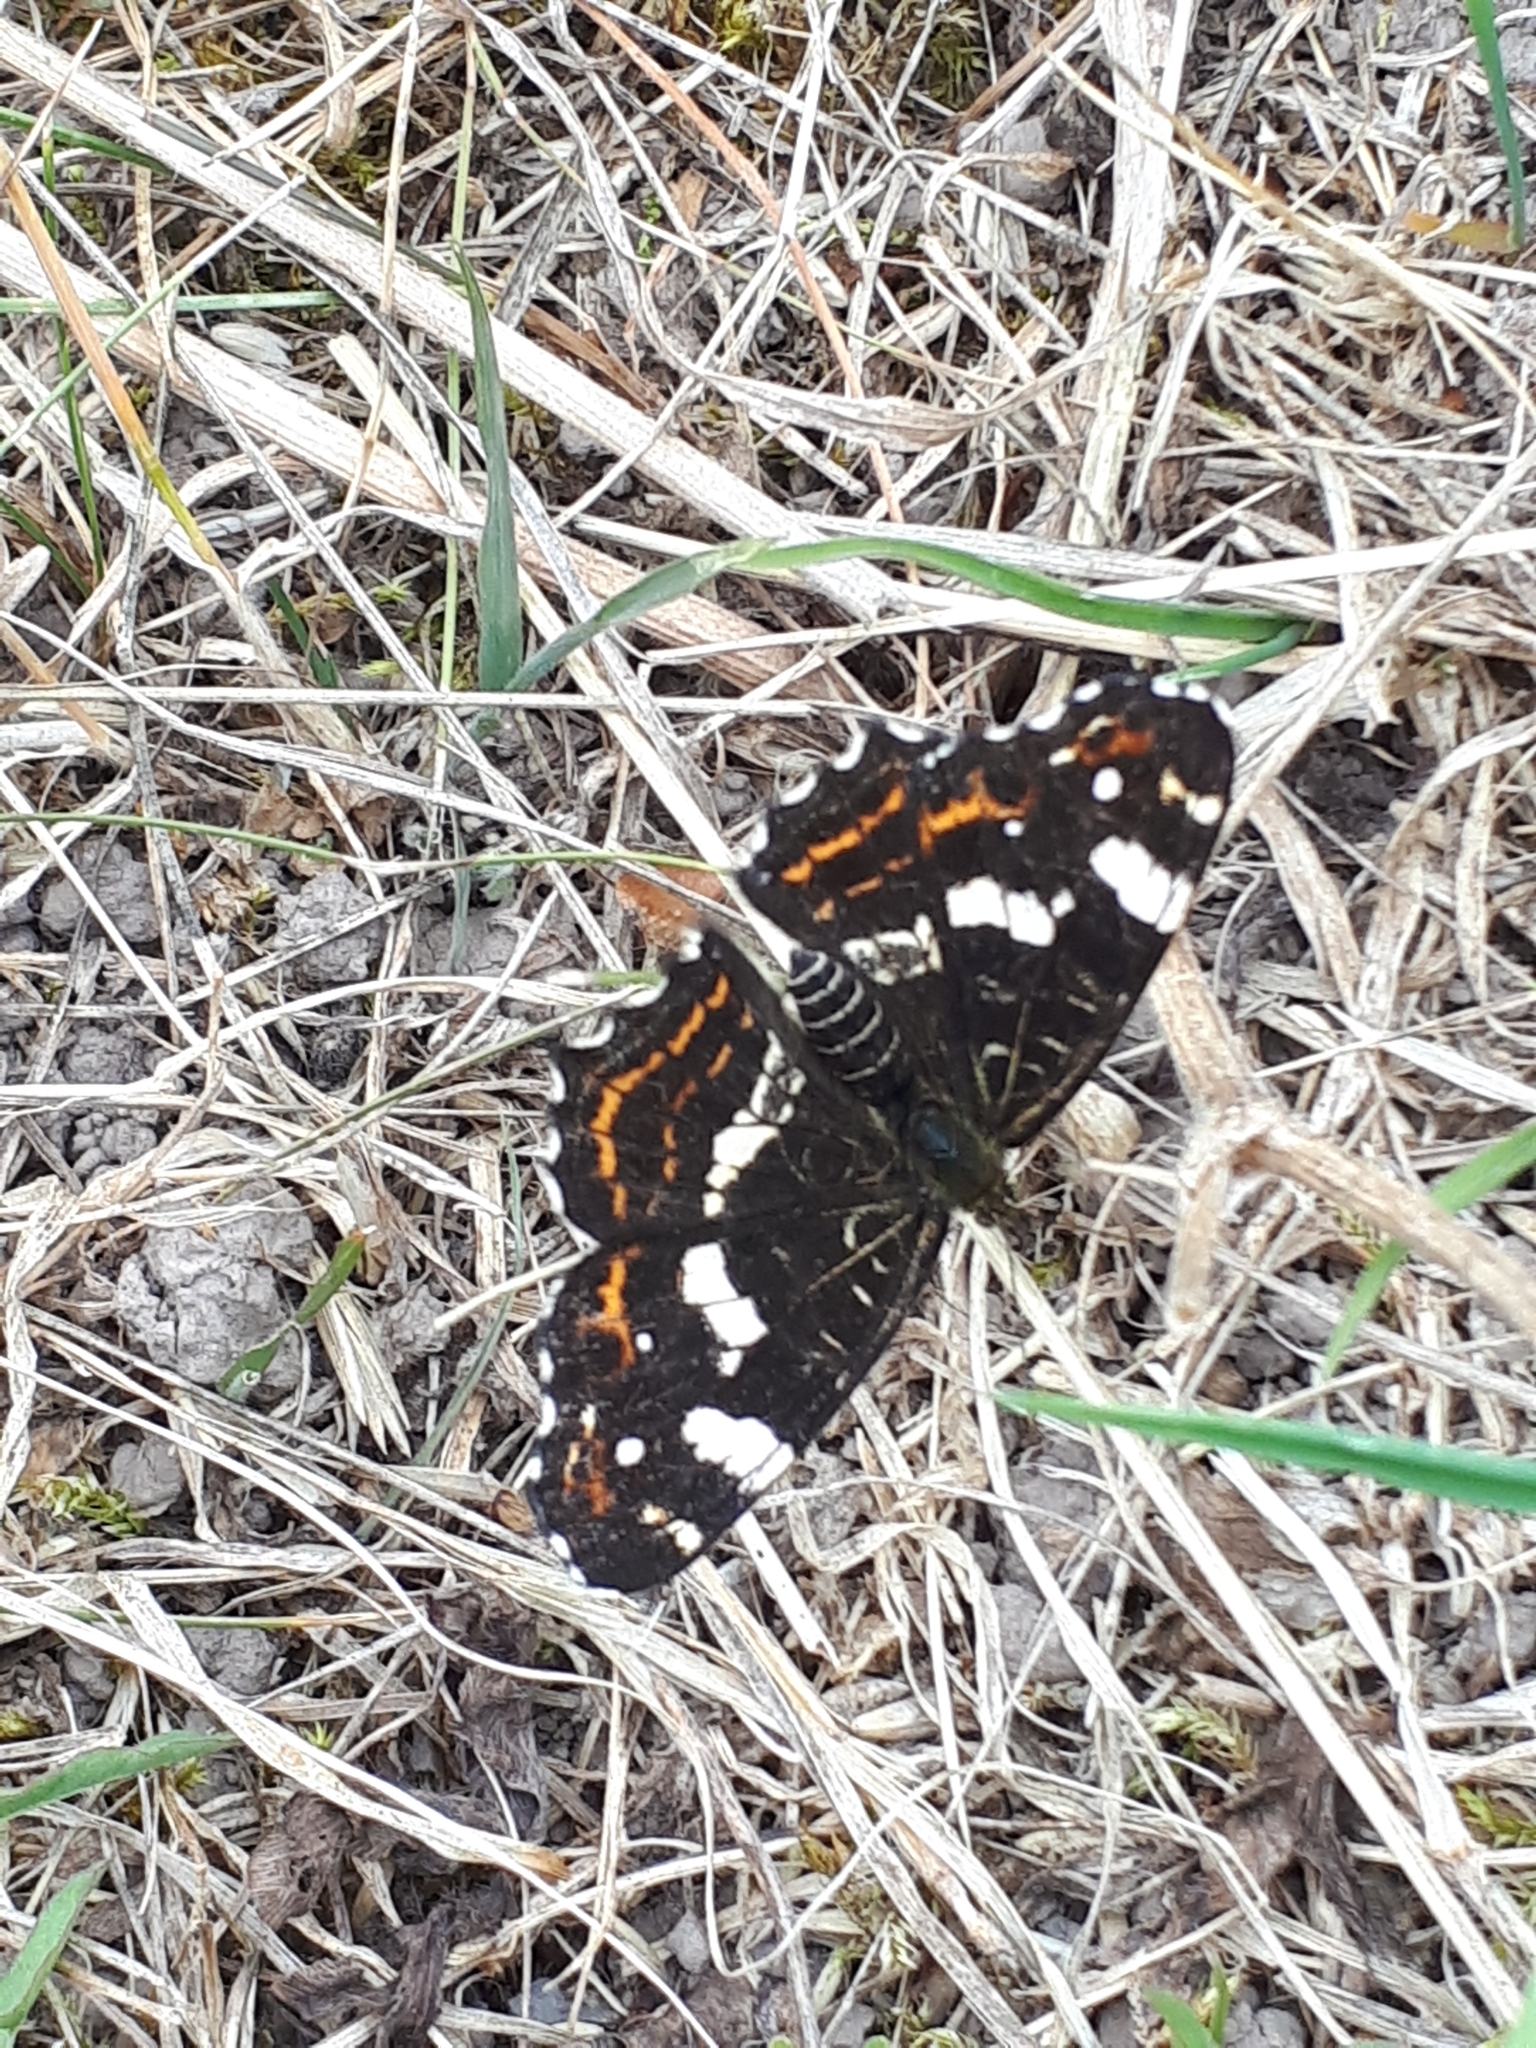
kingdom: Animalia
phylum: Arthropoda
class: Insecta
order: Lepidoptera
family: Nymphalidae
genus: Araschnia
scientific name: Araschnia levana
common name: Map butterfly
